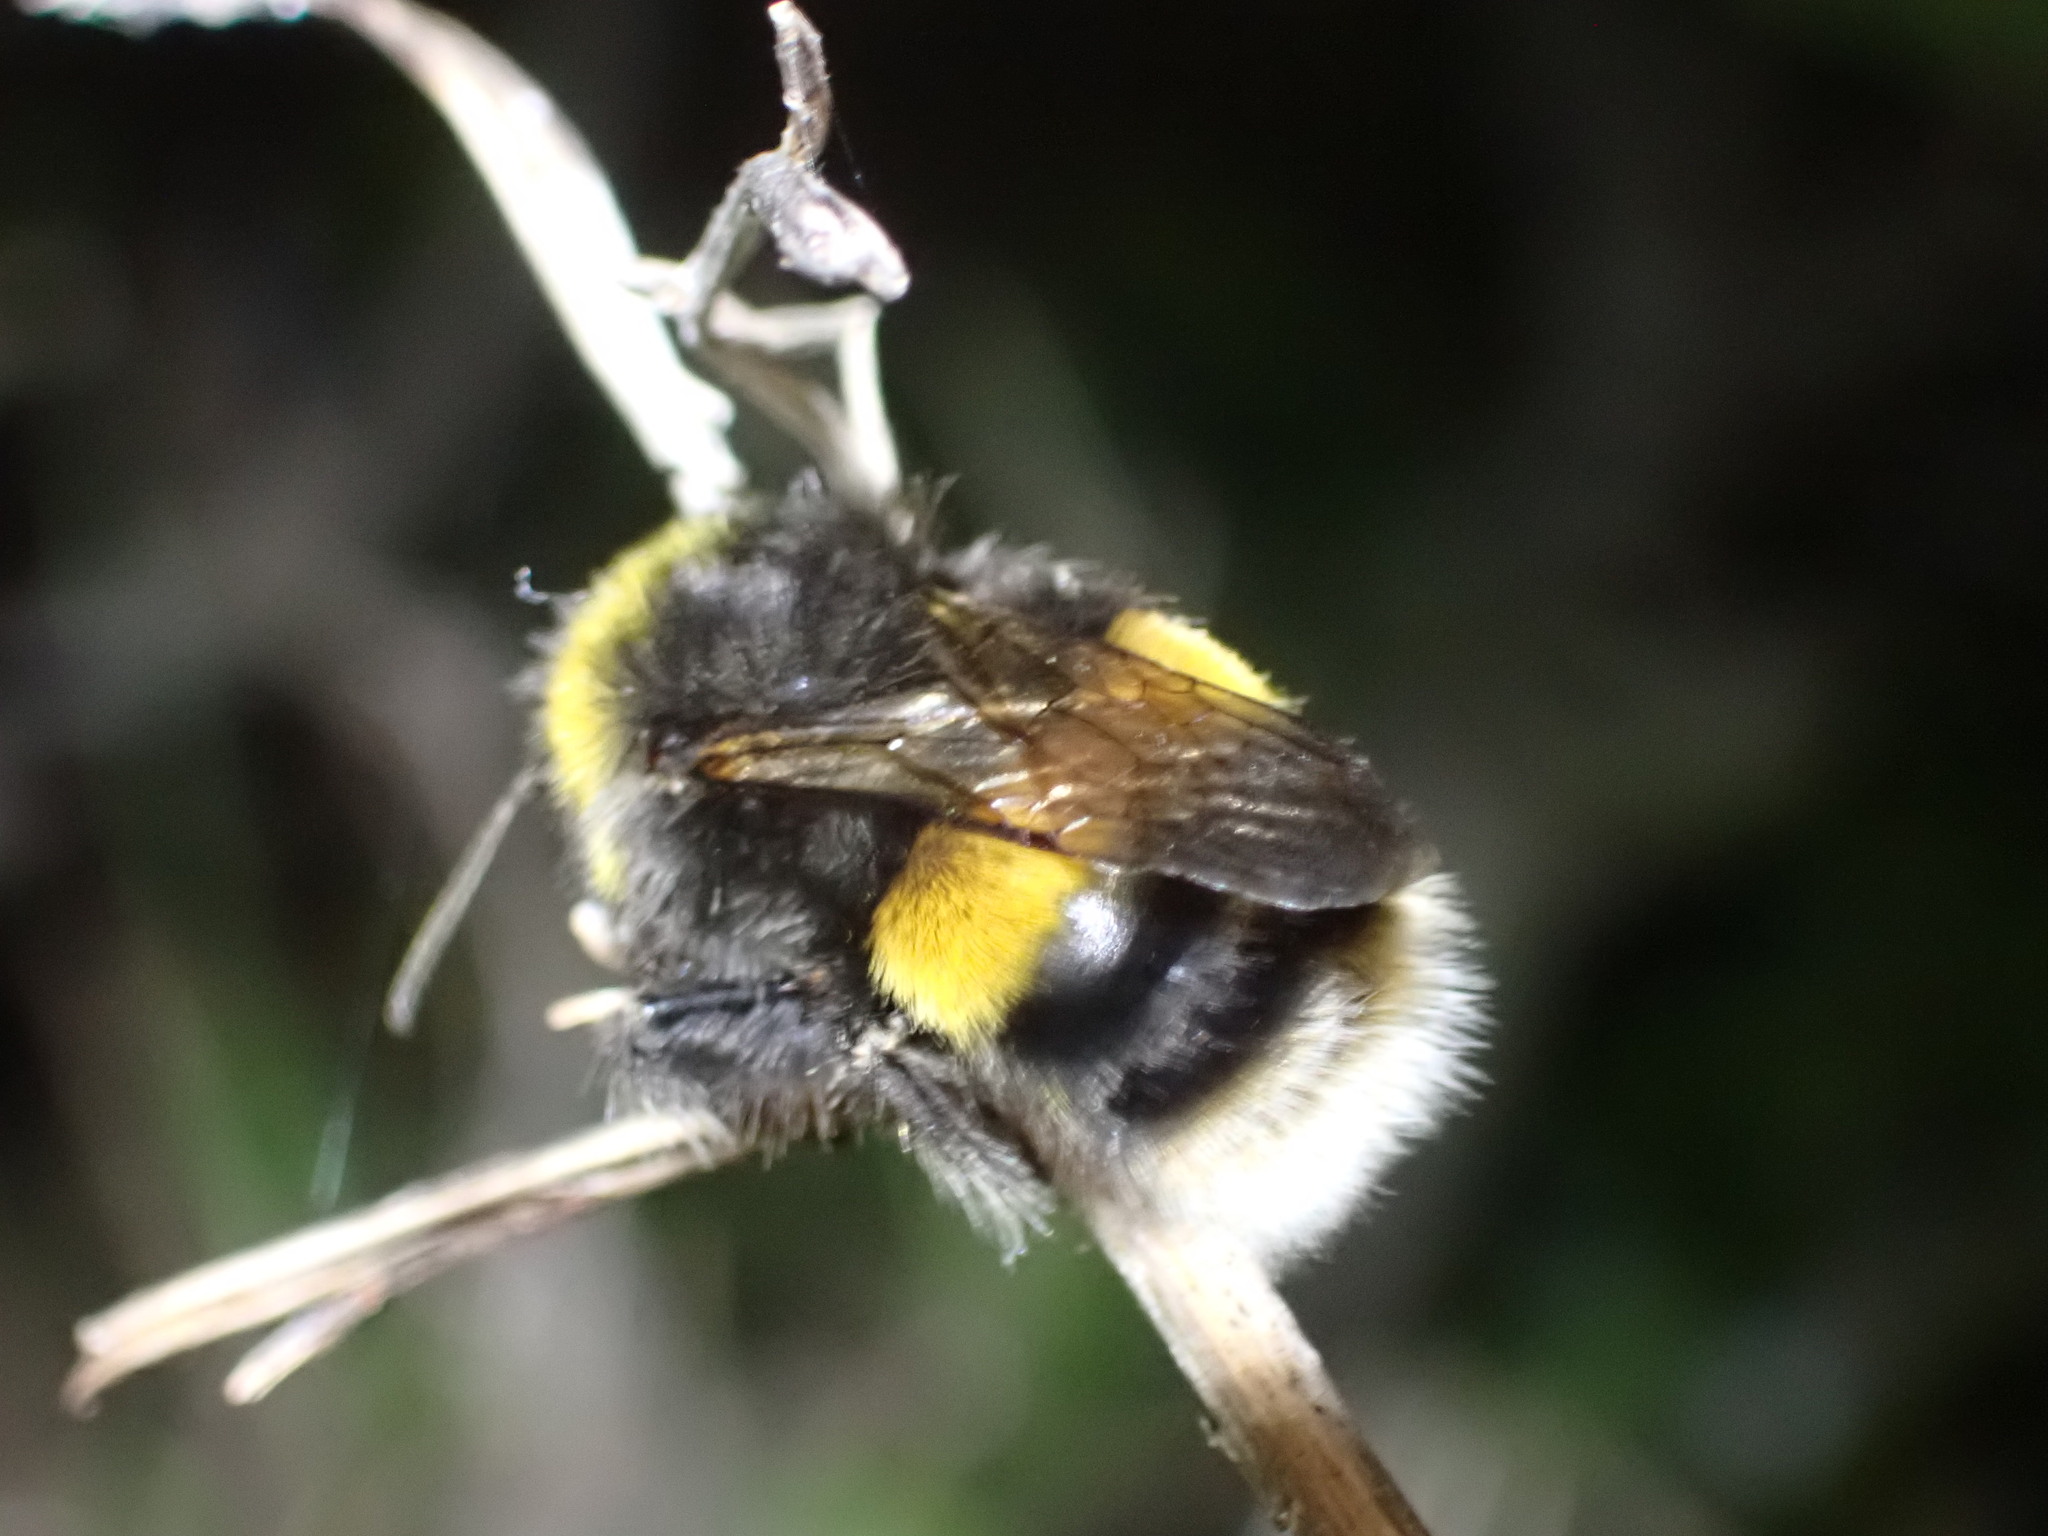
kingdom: Animalia
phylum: Arthropoda
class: Insecta
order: Hymenoptera
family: Apidae
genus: Bombus
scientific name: Bombus terrestris
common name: Buff-tailed bumblebee
